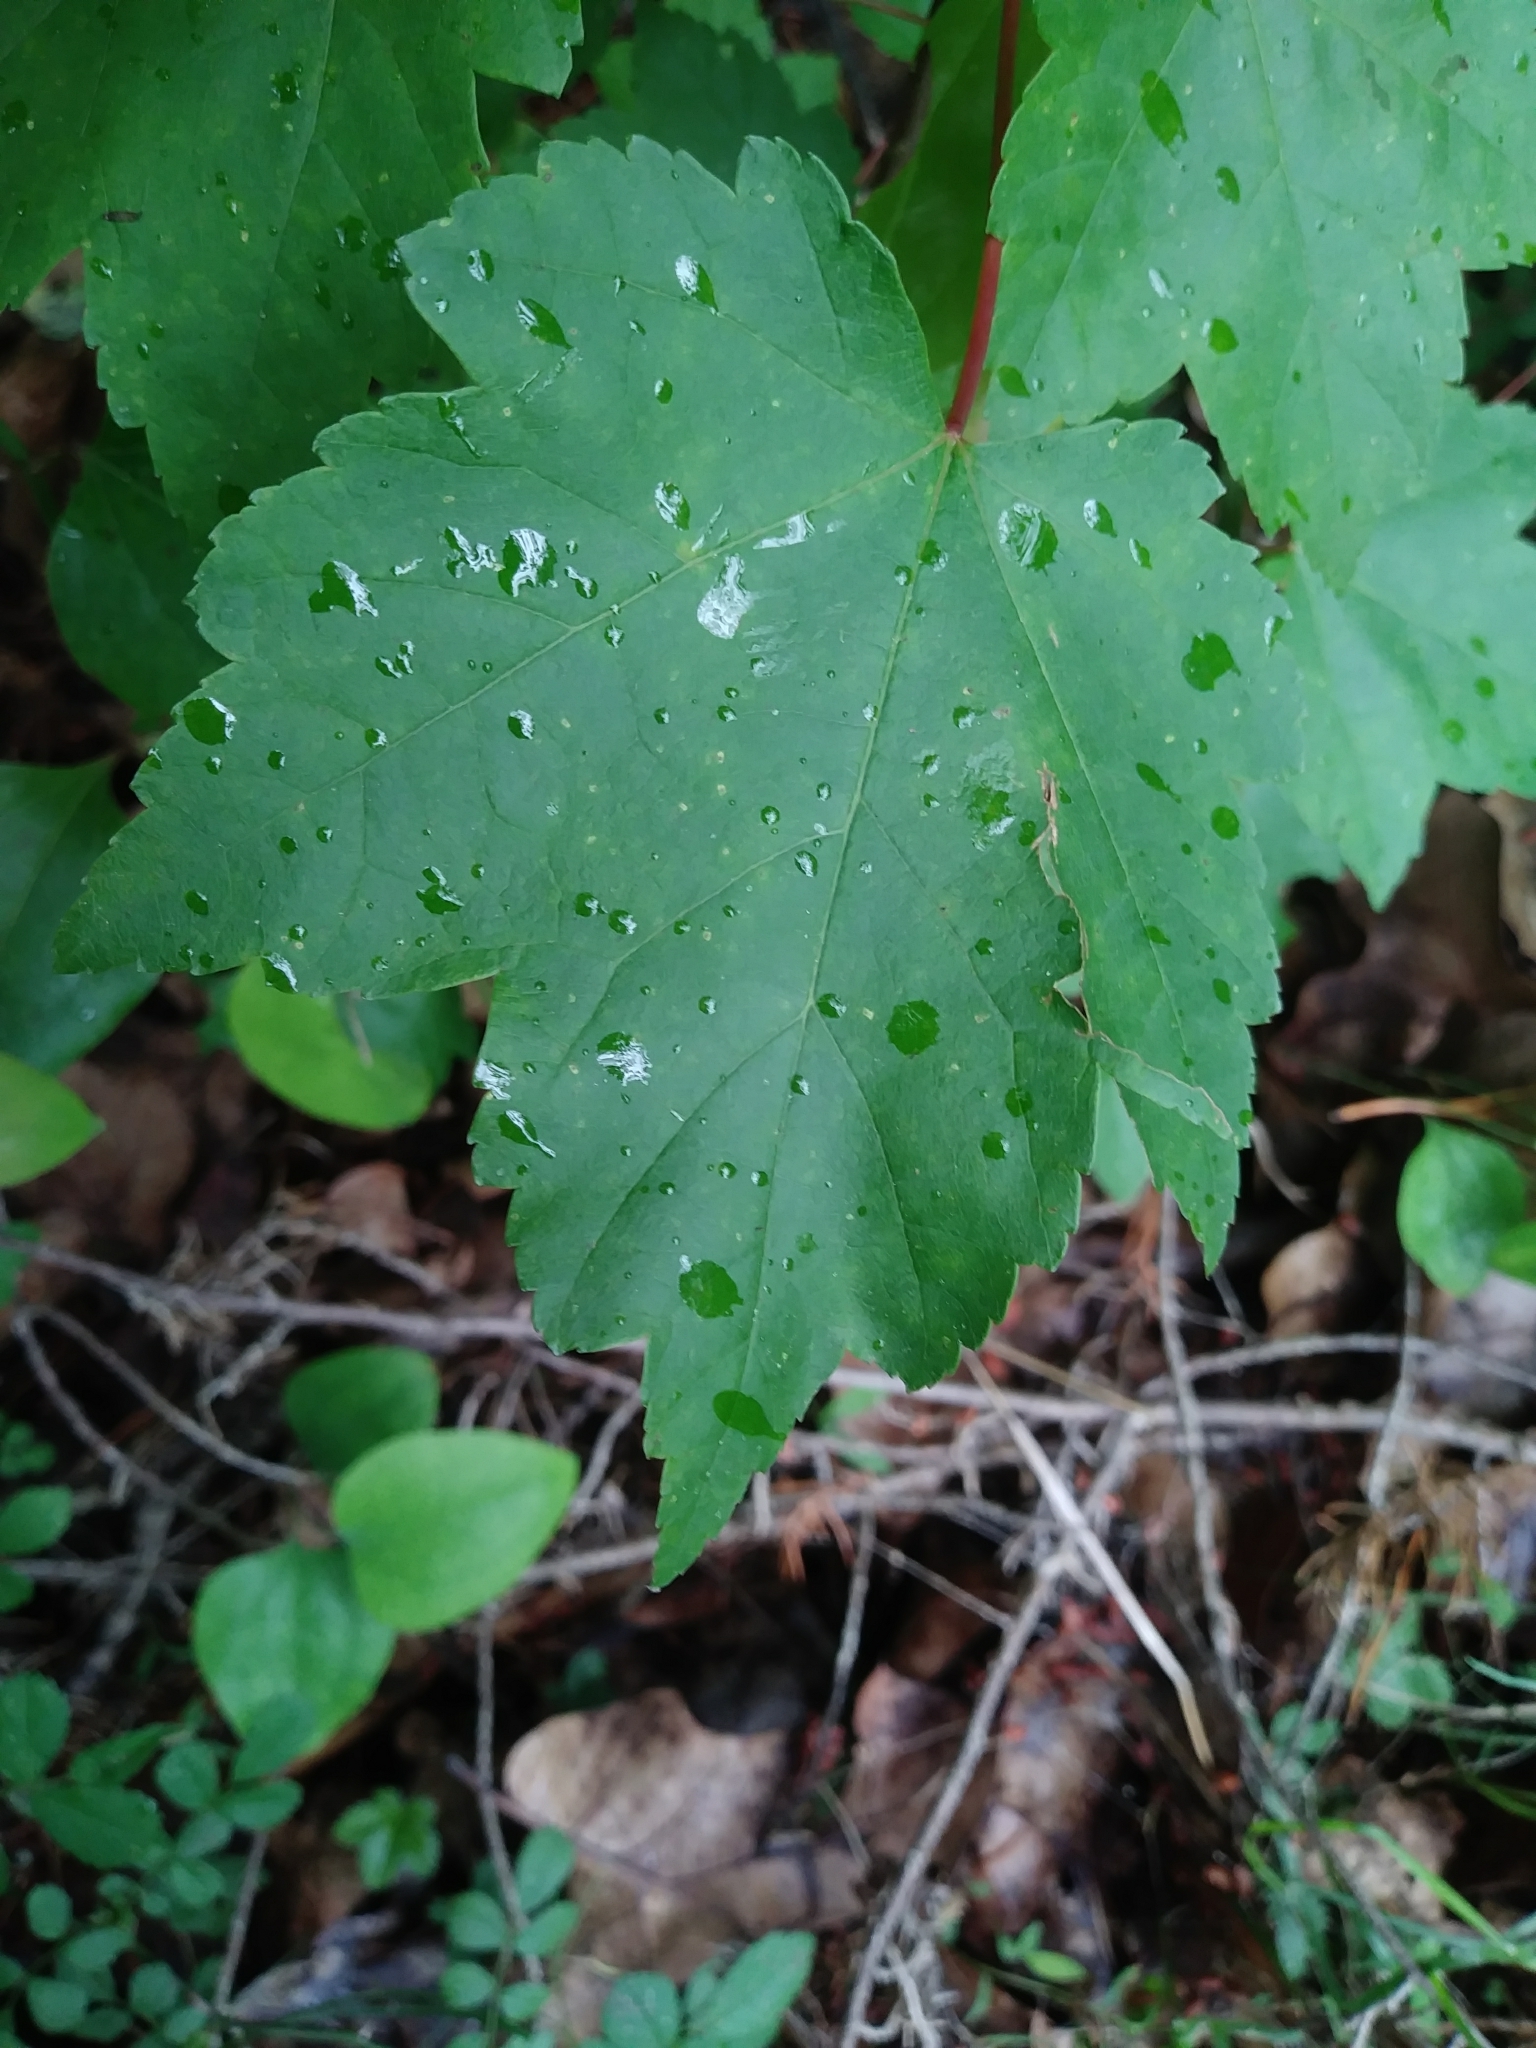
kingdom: Plantae
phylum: Tracheophyta
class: Magnoliopsida
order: Sapindales
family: Sapindaceae
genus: Acer
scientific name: Acer rubrum
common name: Red maple
